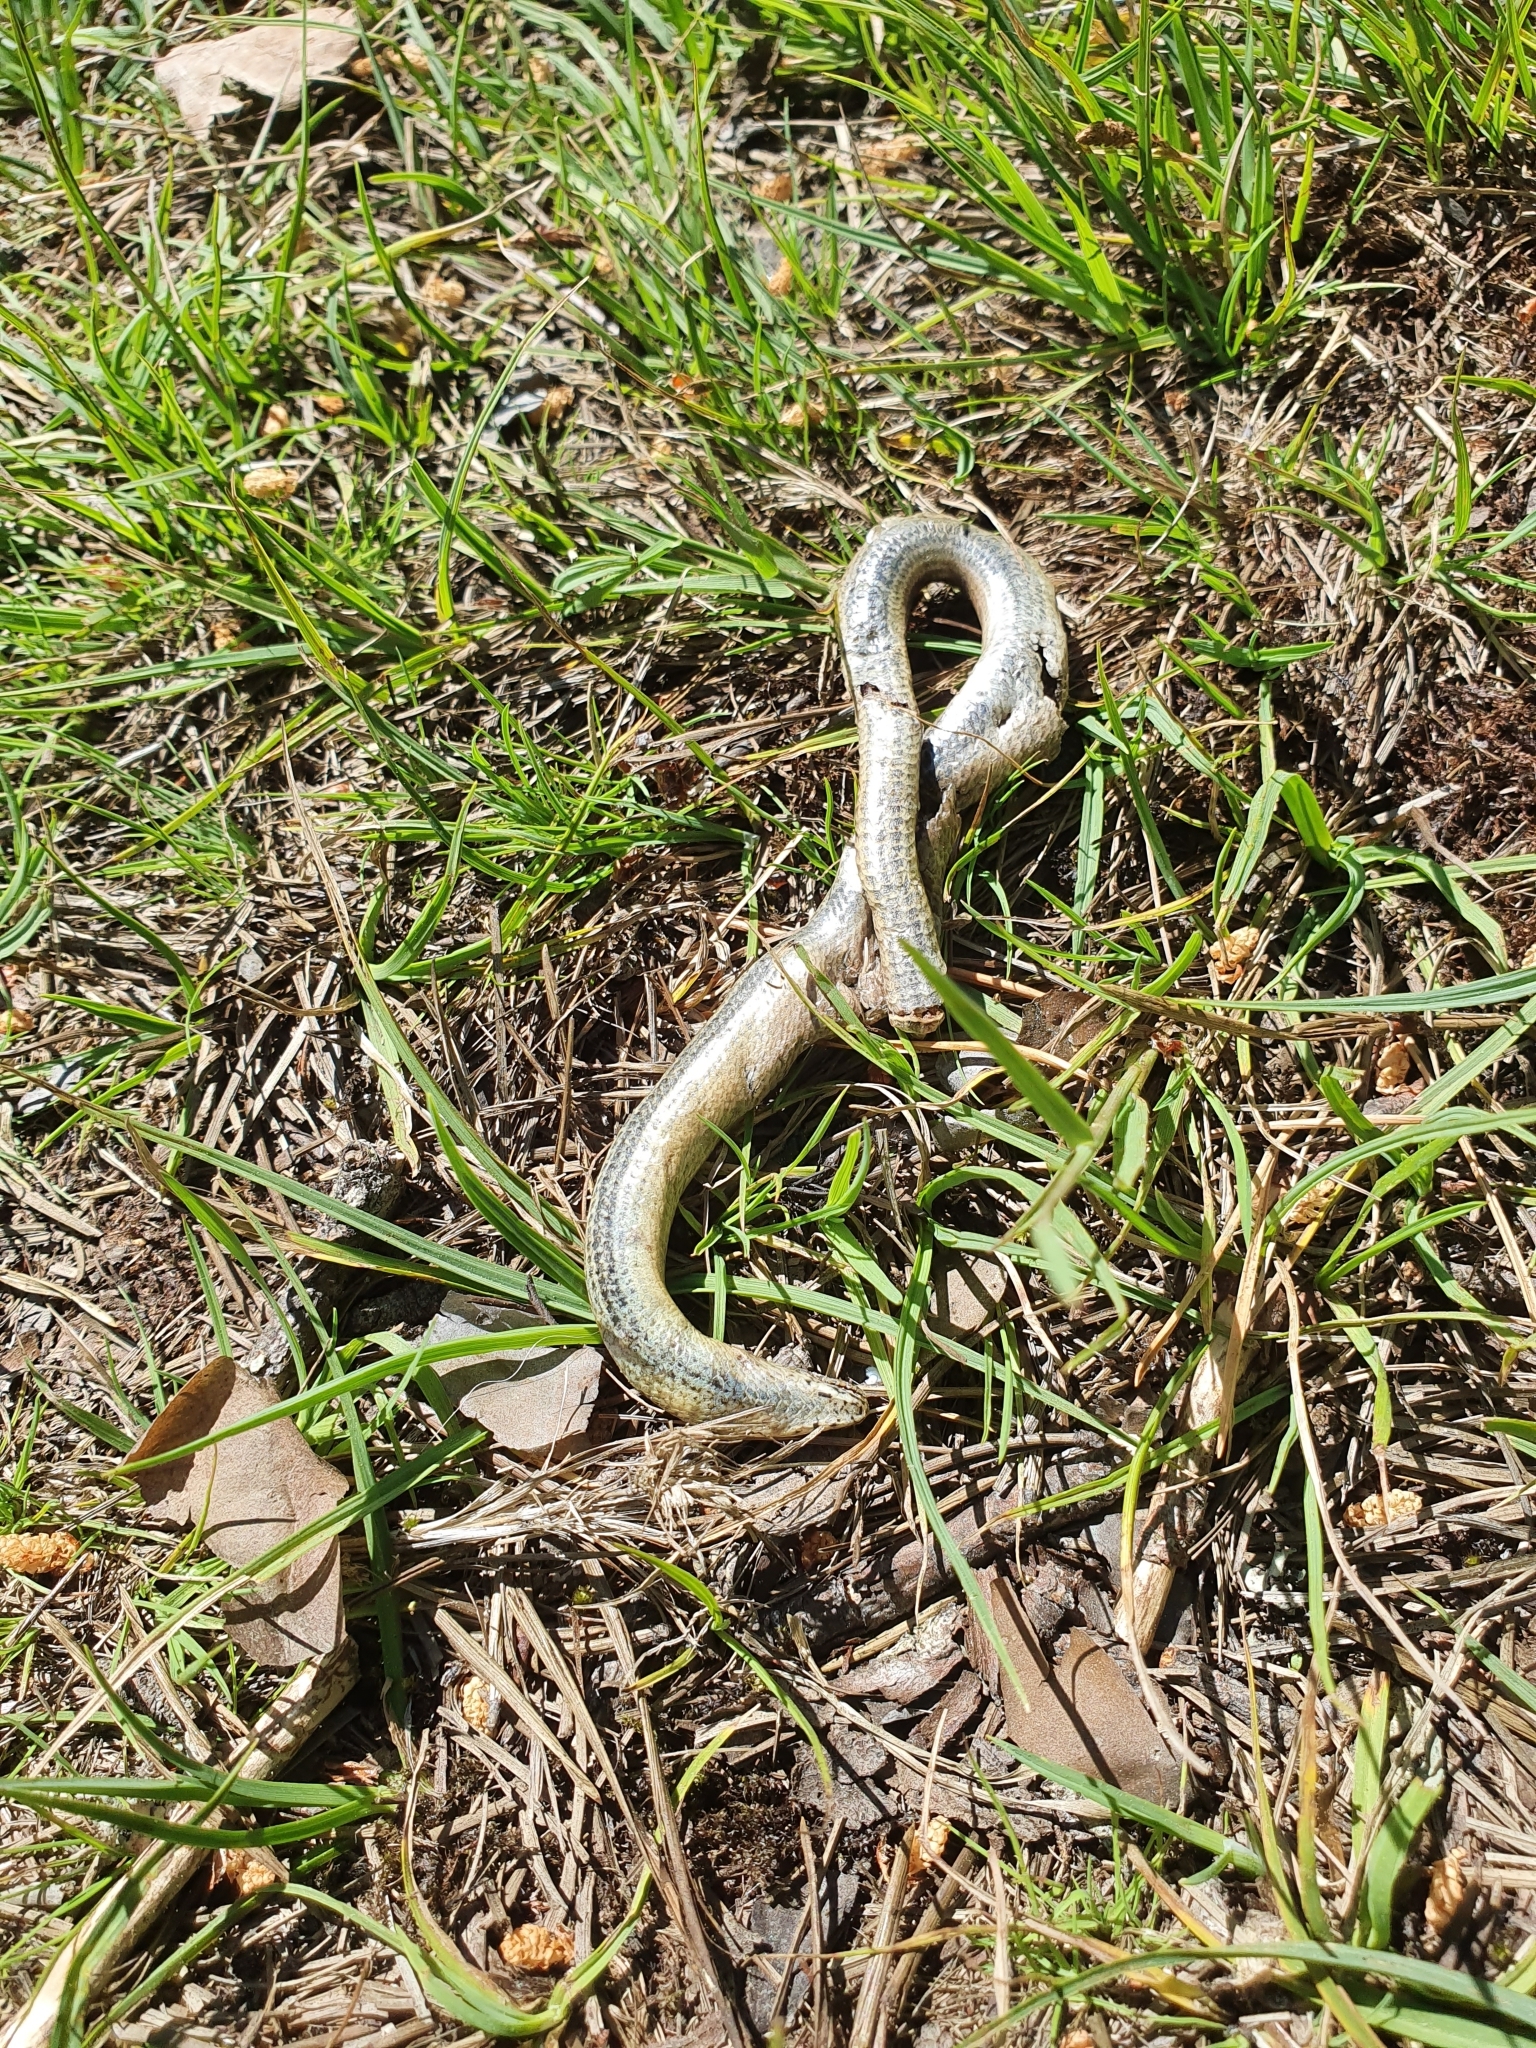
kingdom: Animalia
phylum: Chordata
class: Squamata
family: Anguidae
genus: Anguis
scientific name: Anguis fragilis
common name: Slow worm
